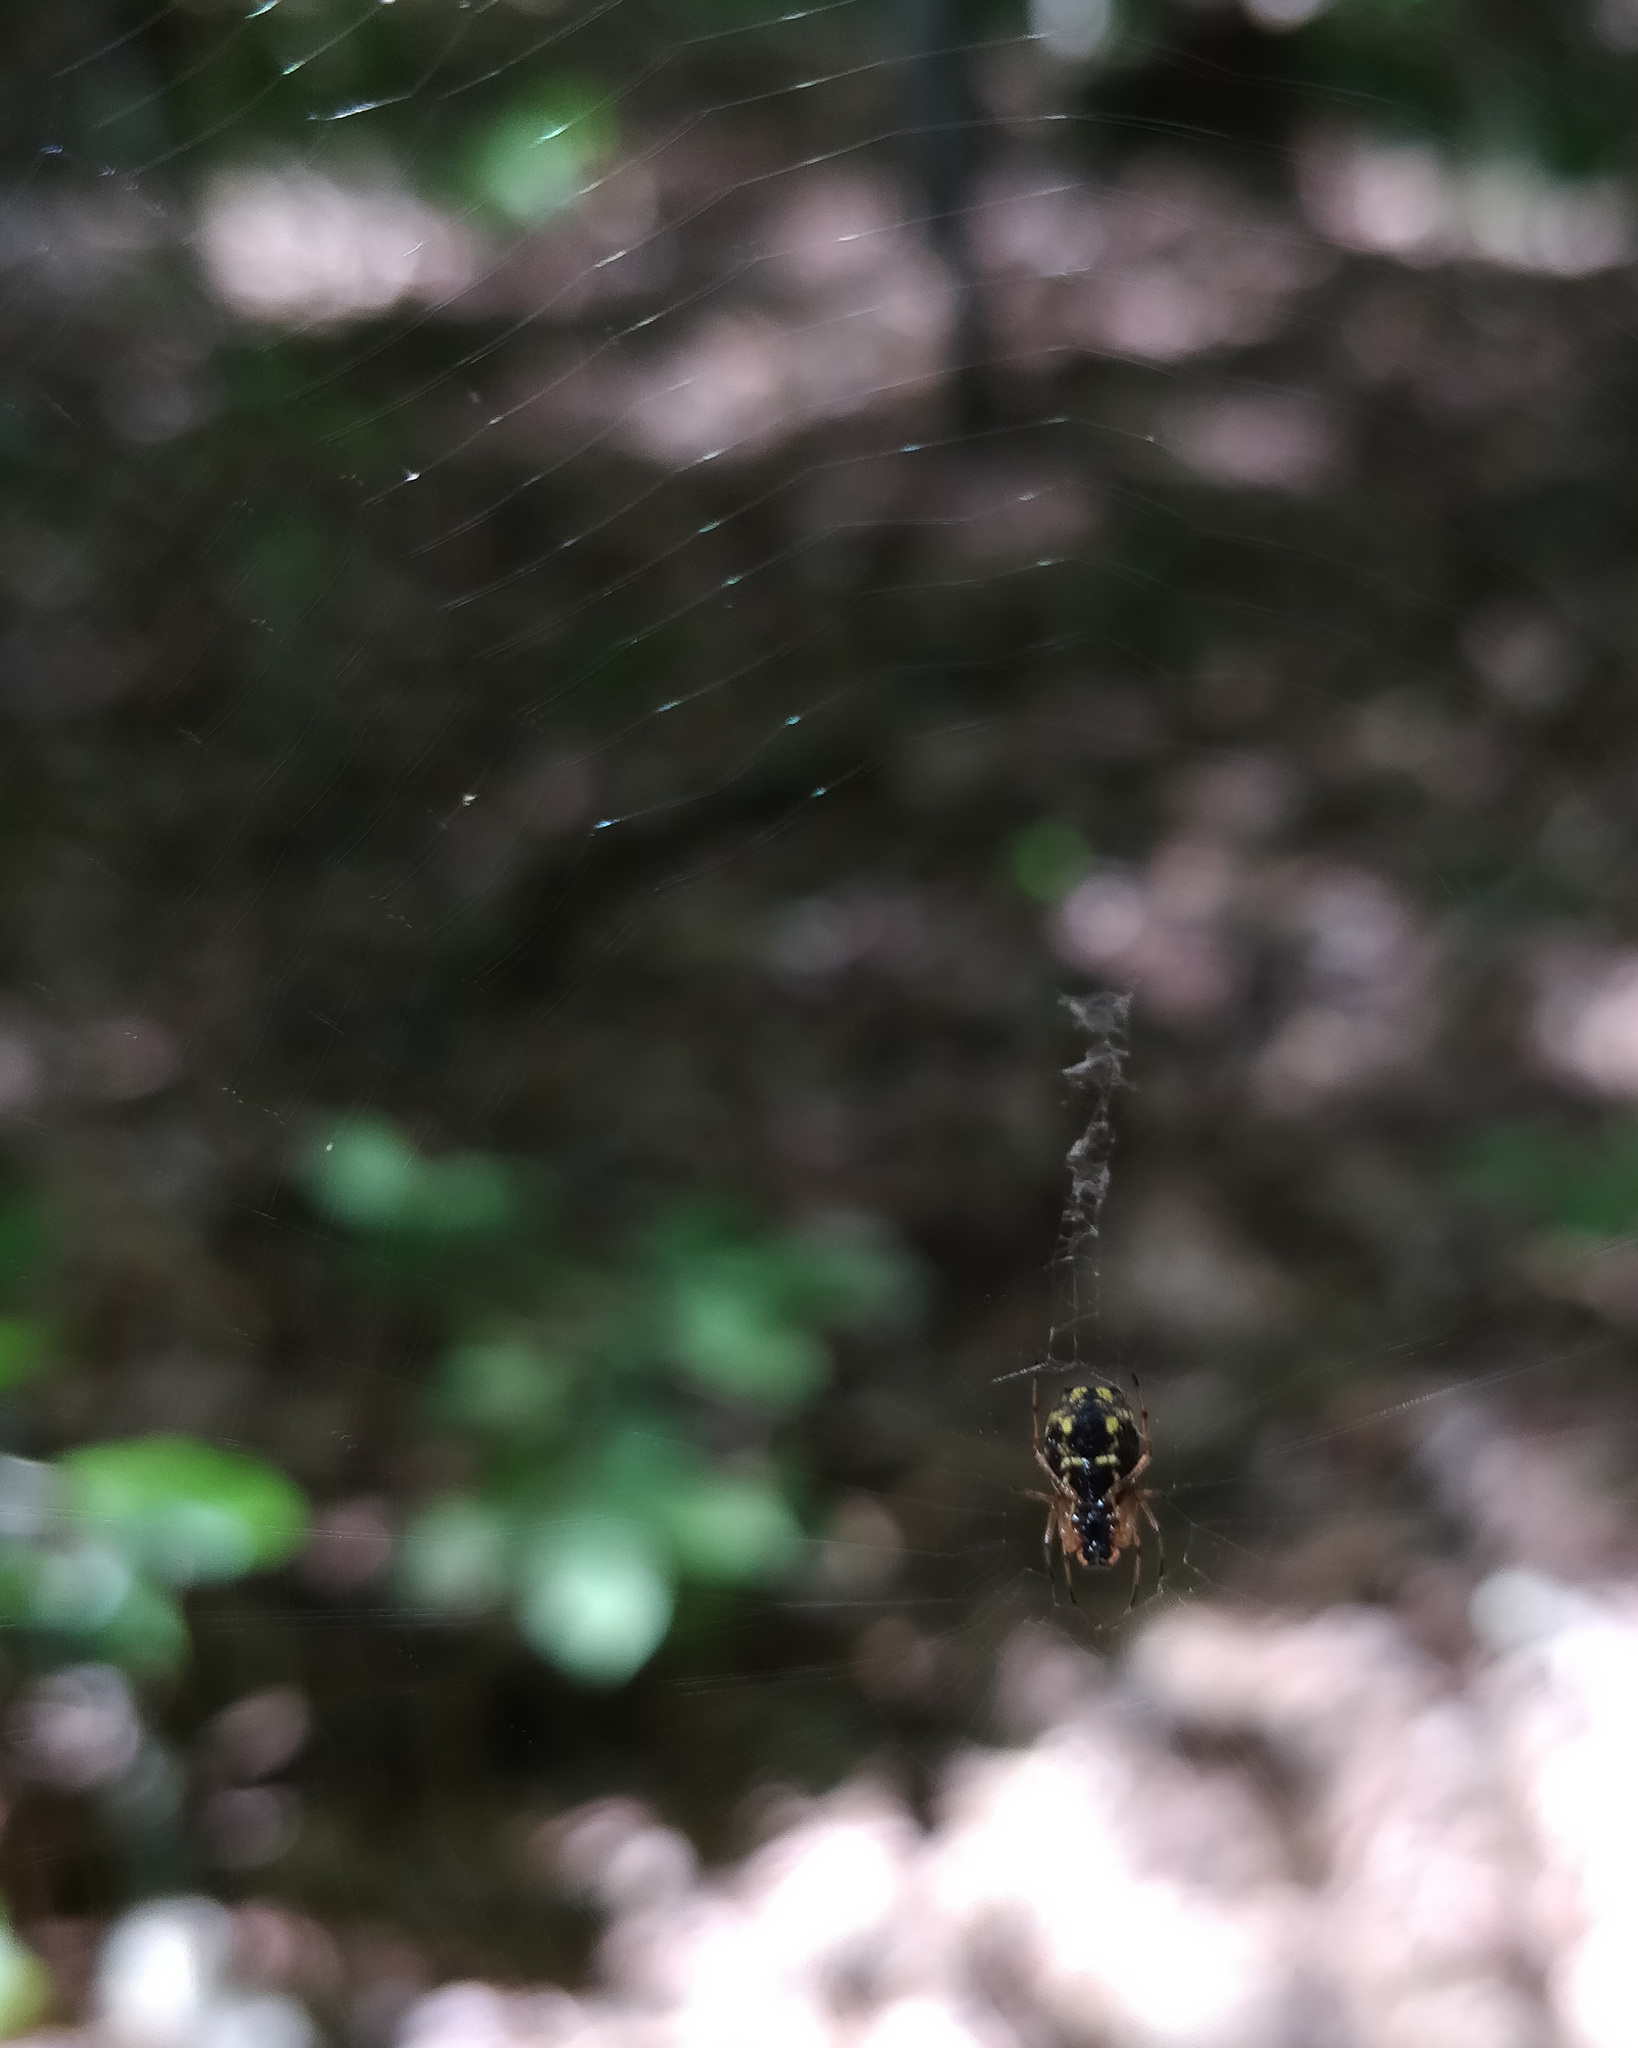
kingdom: Animalia
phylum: Arthropoda
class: Arachnida
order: Araneae
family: Araneidae
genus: Micrathena
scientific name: Micrathena mitrata
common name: Orb weavers
